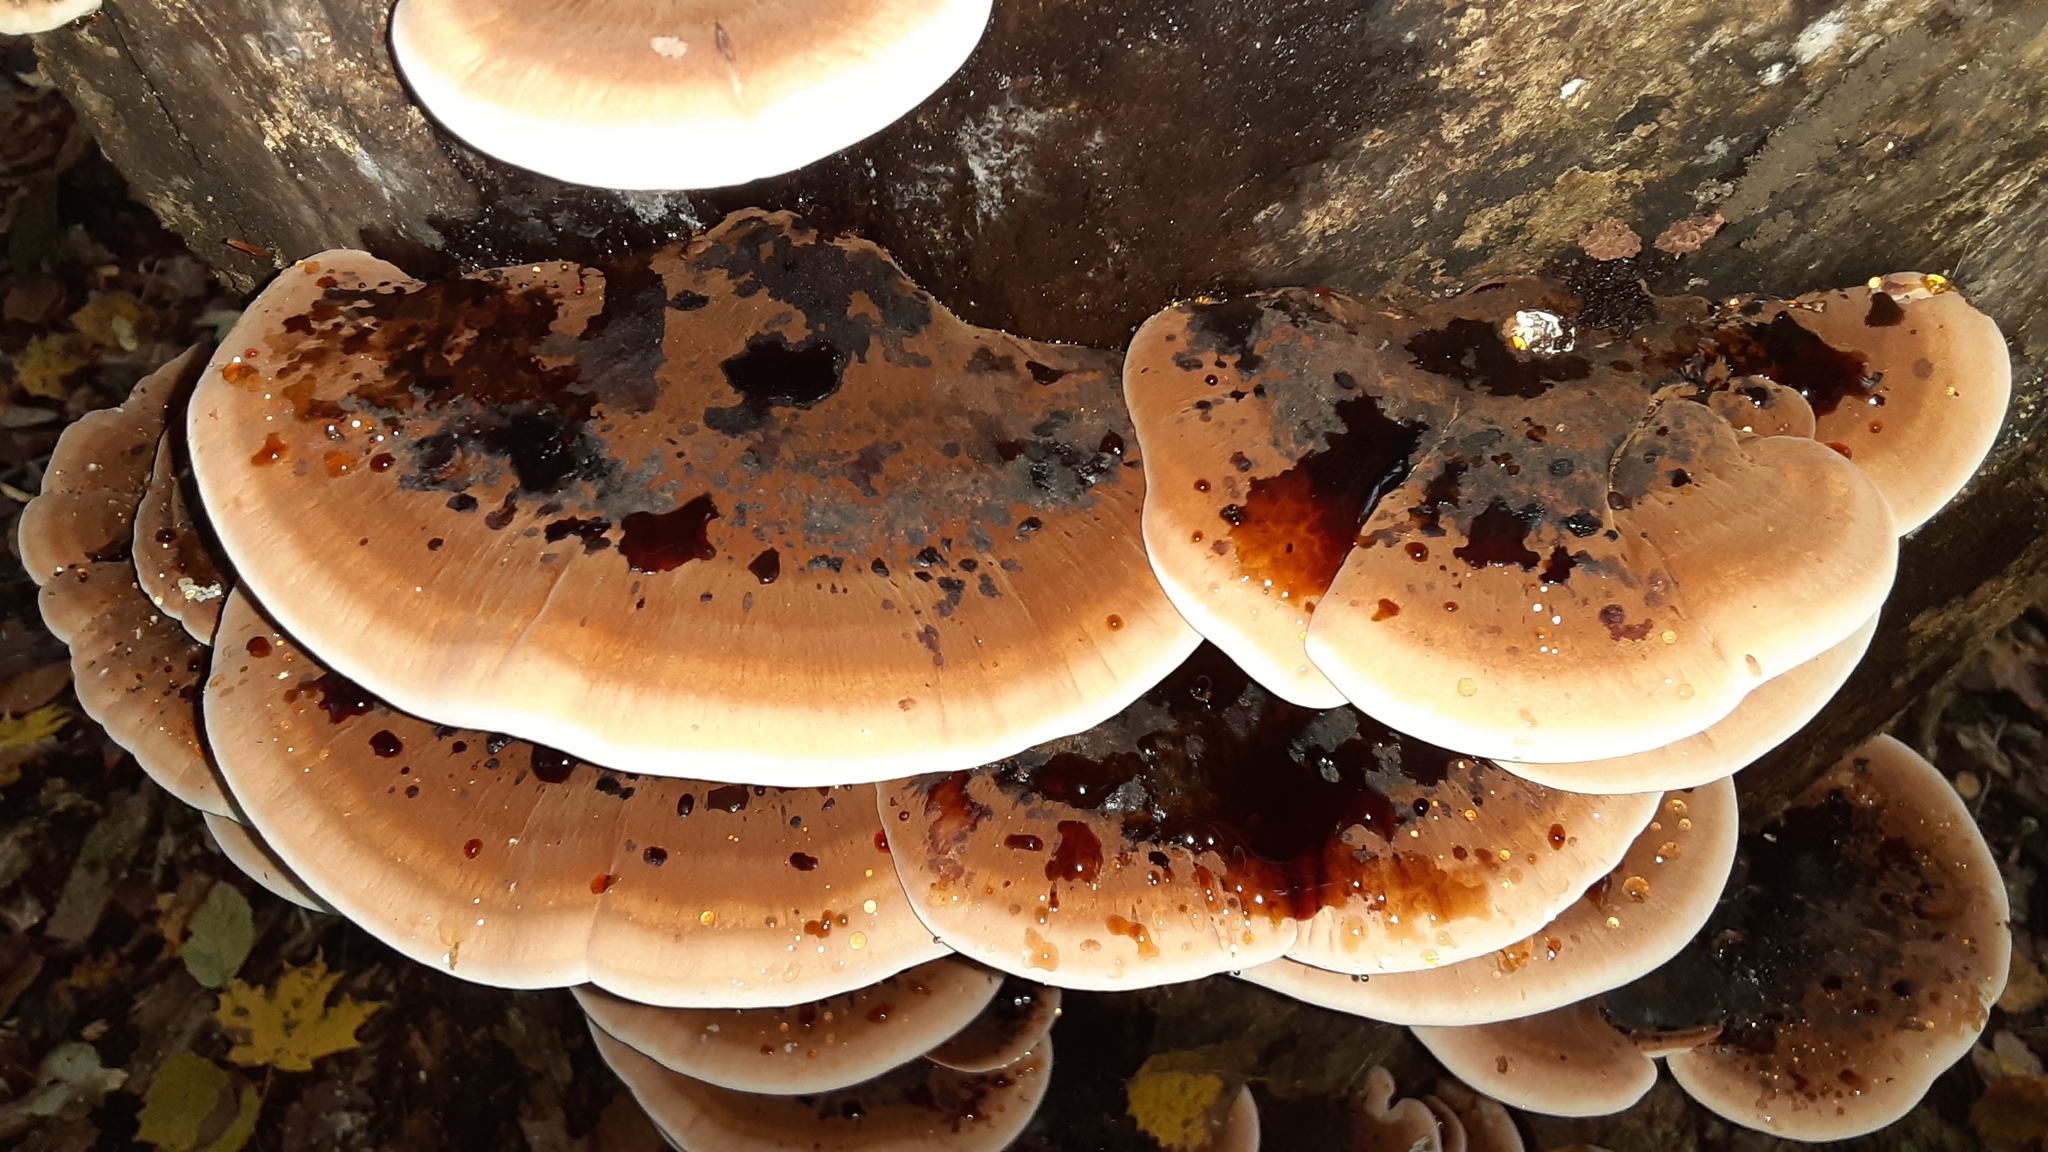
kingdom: Fungi
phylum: Basidiomycota
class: Agaricomycetes
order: Polyporales
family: Ischnodermataceae
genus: Ischnoderma
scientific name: Ischnoderma resinosum
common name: Resinous polypore
